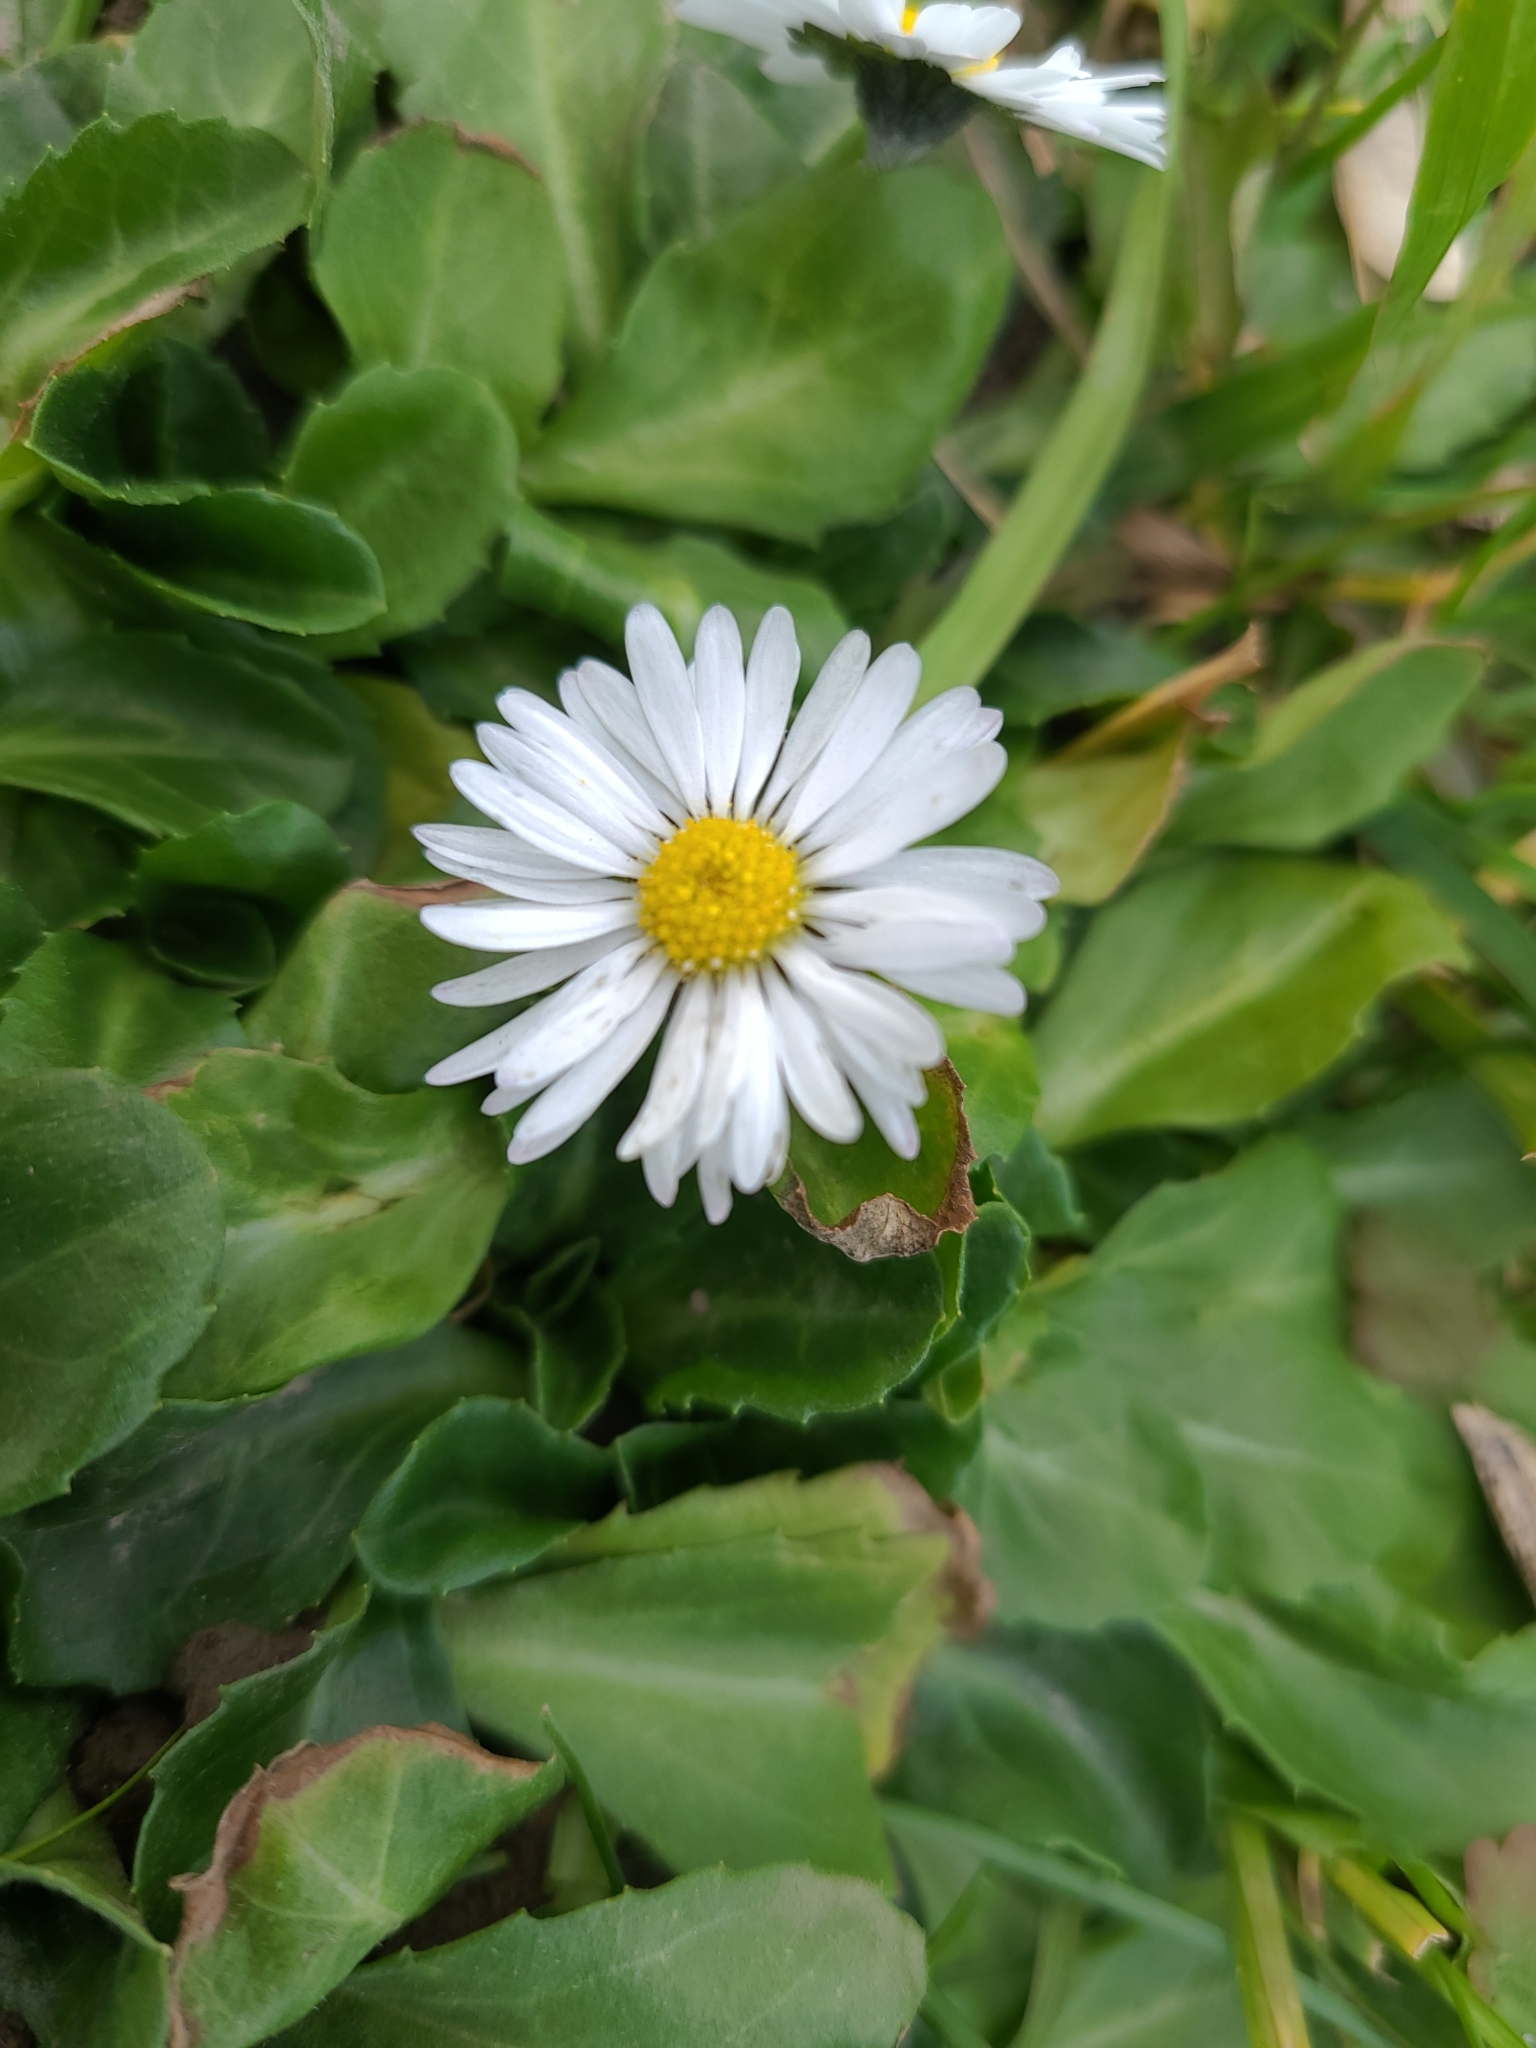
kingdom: Plantae
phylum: Tracheophyta
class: Magnoliopsida
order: Asterales
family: Asteraceae
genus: Bellis
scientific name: Bellis perennis
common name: Lawndaisy
